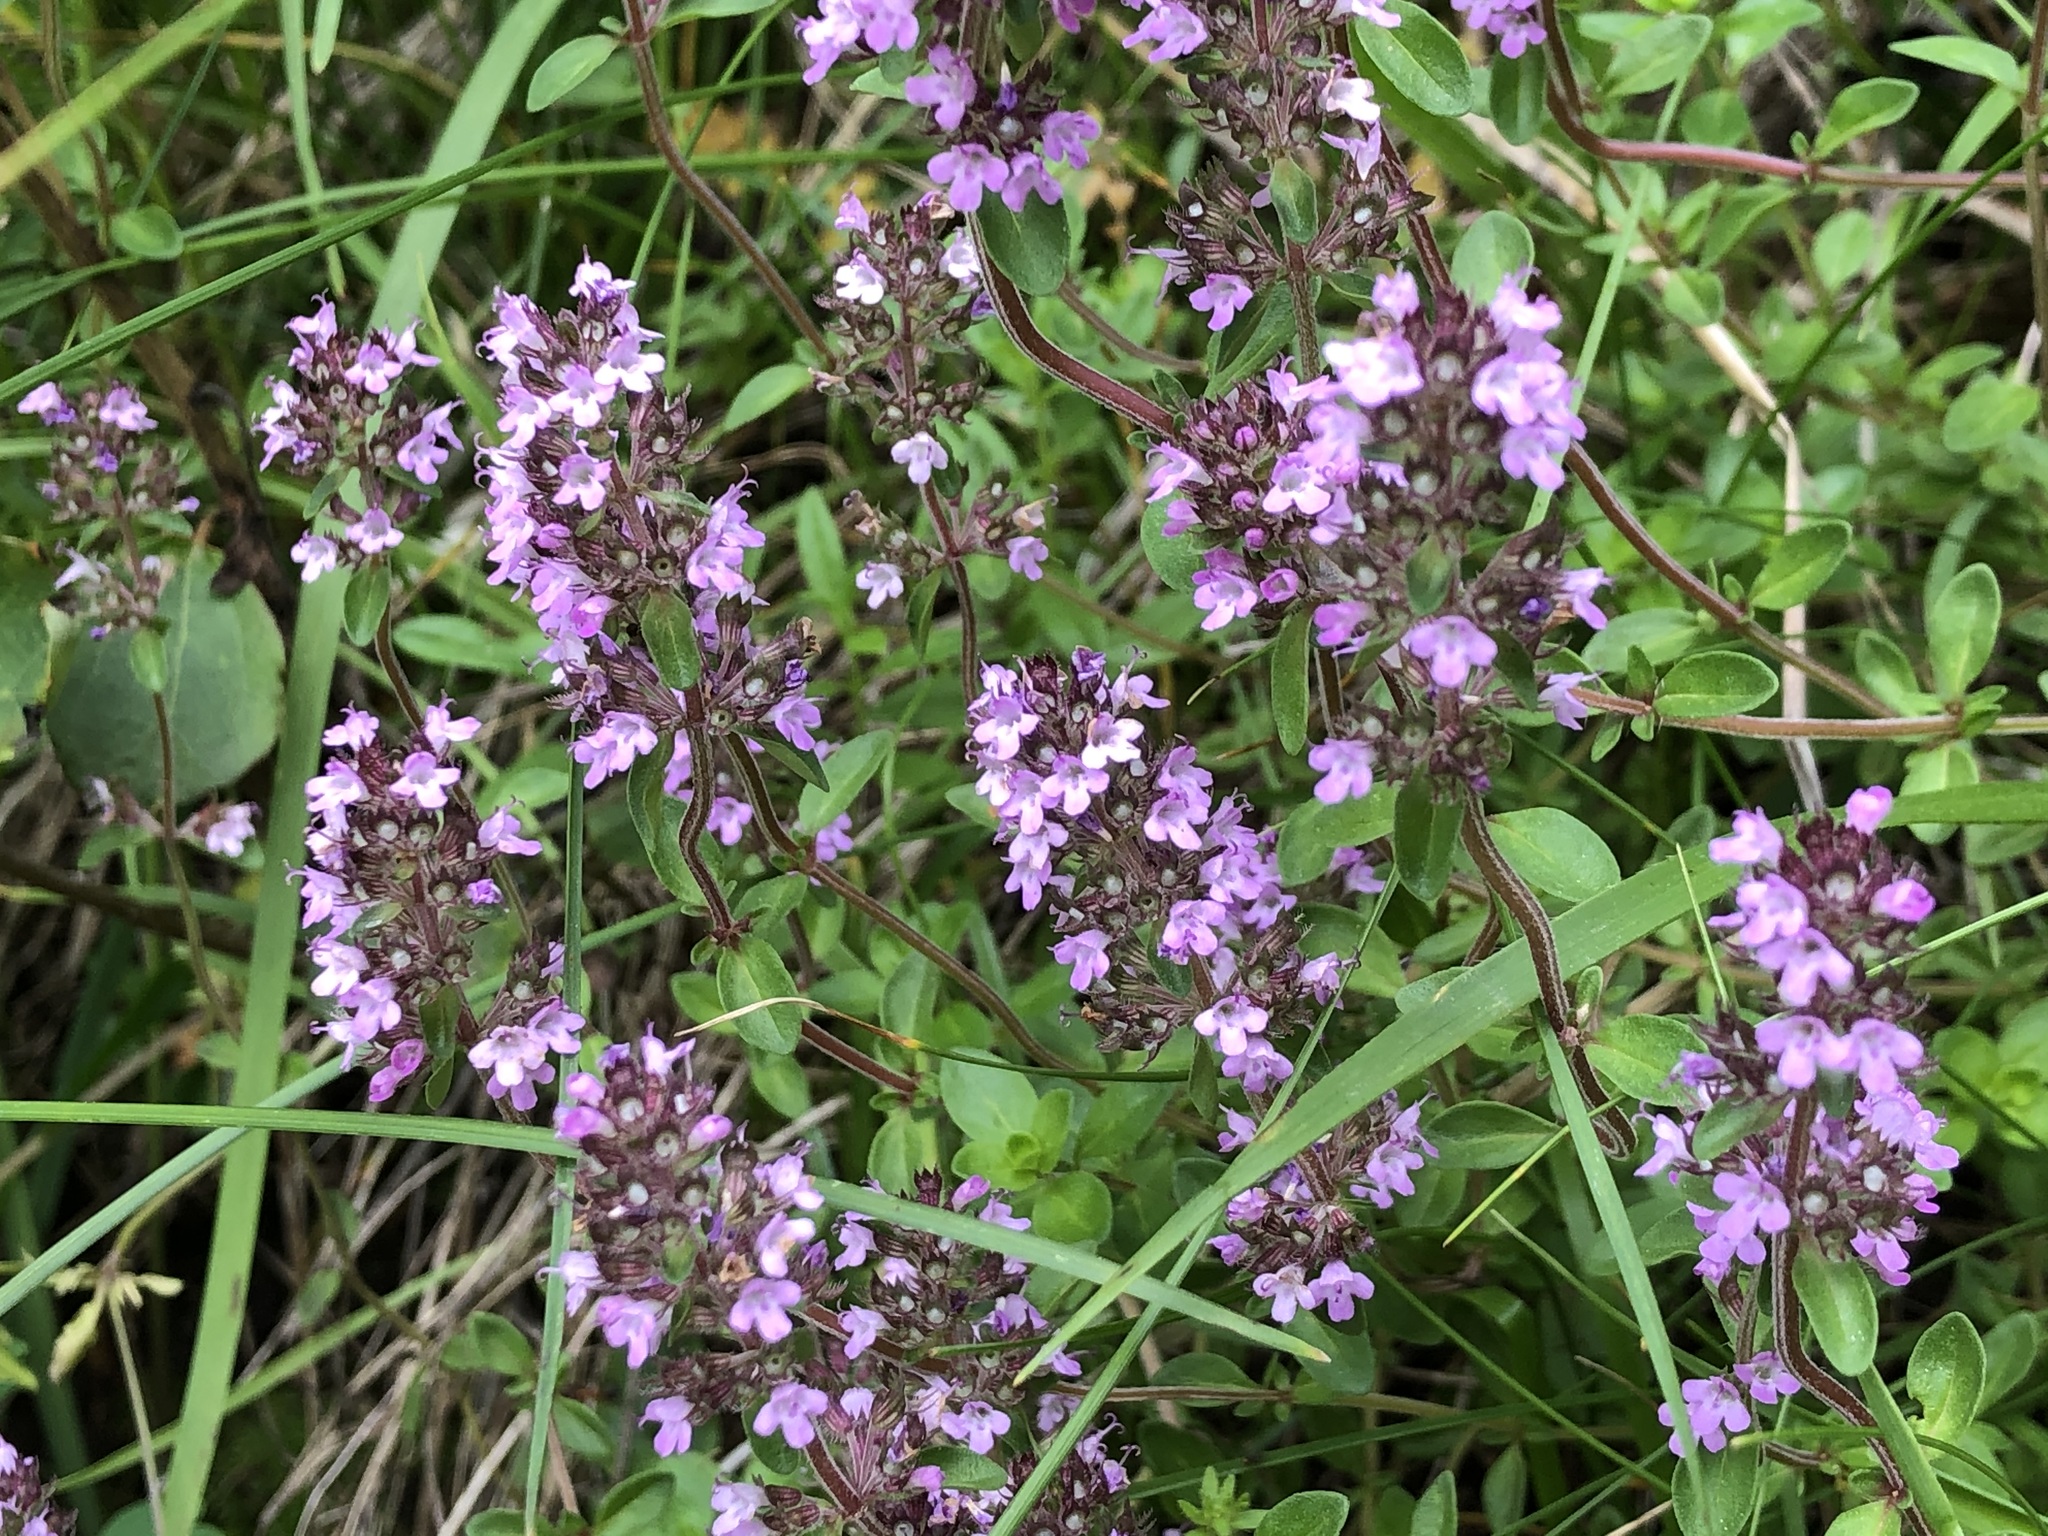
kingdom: Plantae
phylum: Tracheophyta
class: Magnoliopsida
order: Lamiales
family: Lamiaceae
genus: Thymus
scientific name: Thymus pulegioides
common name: Large thyme
